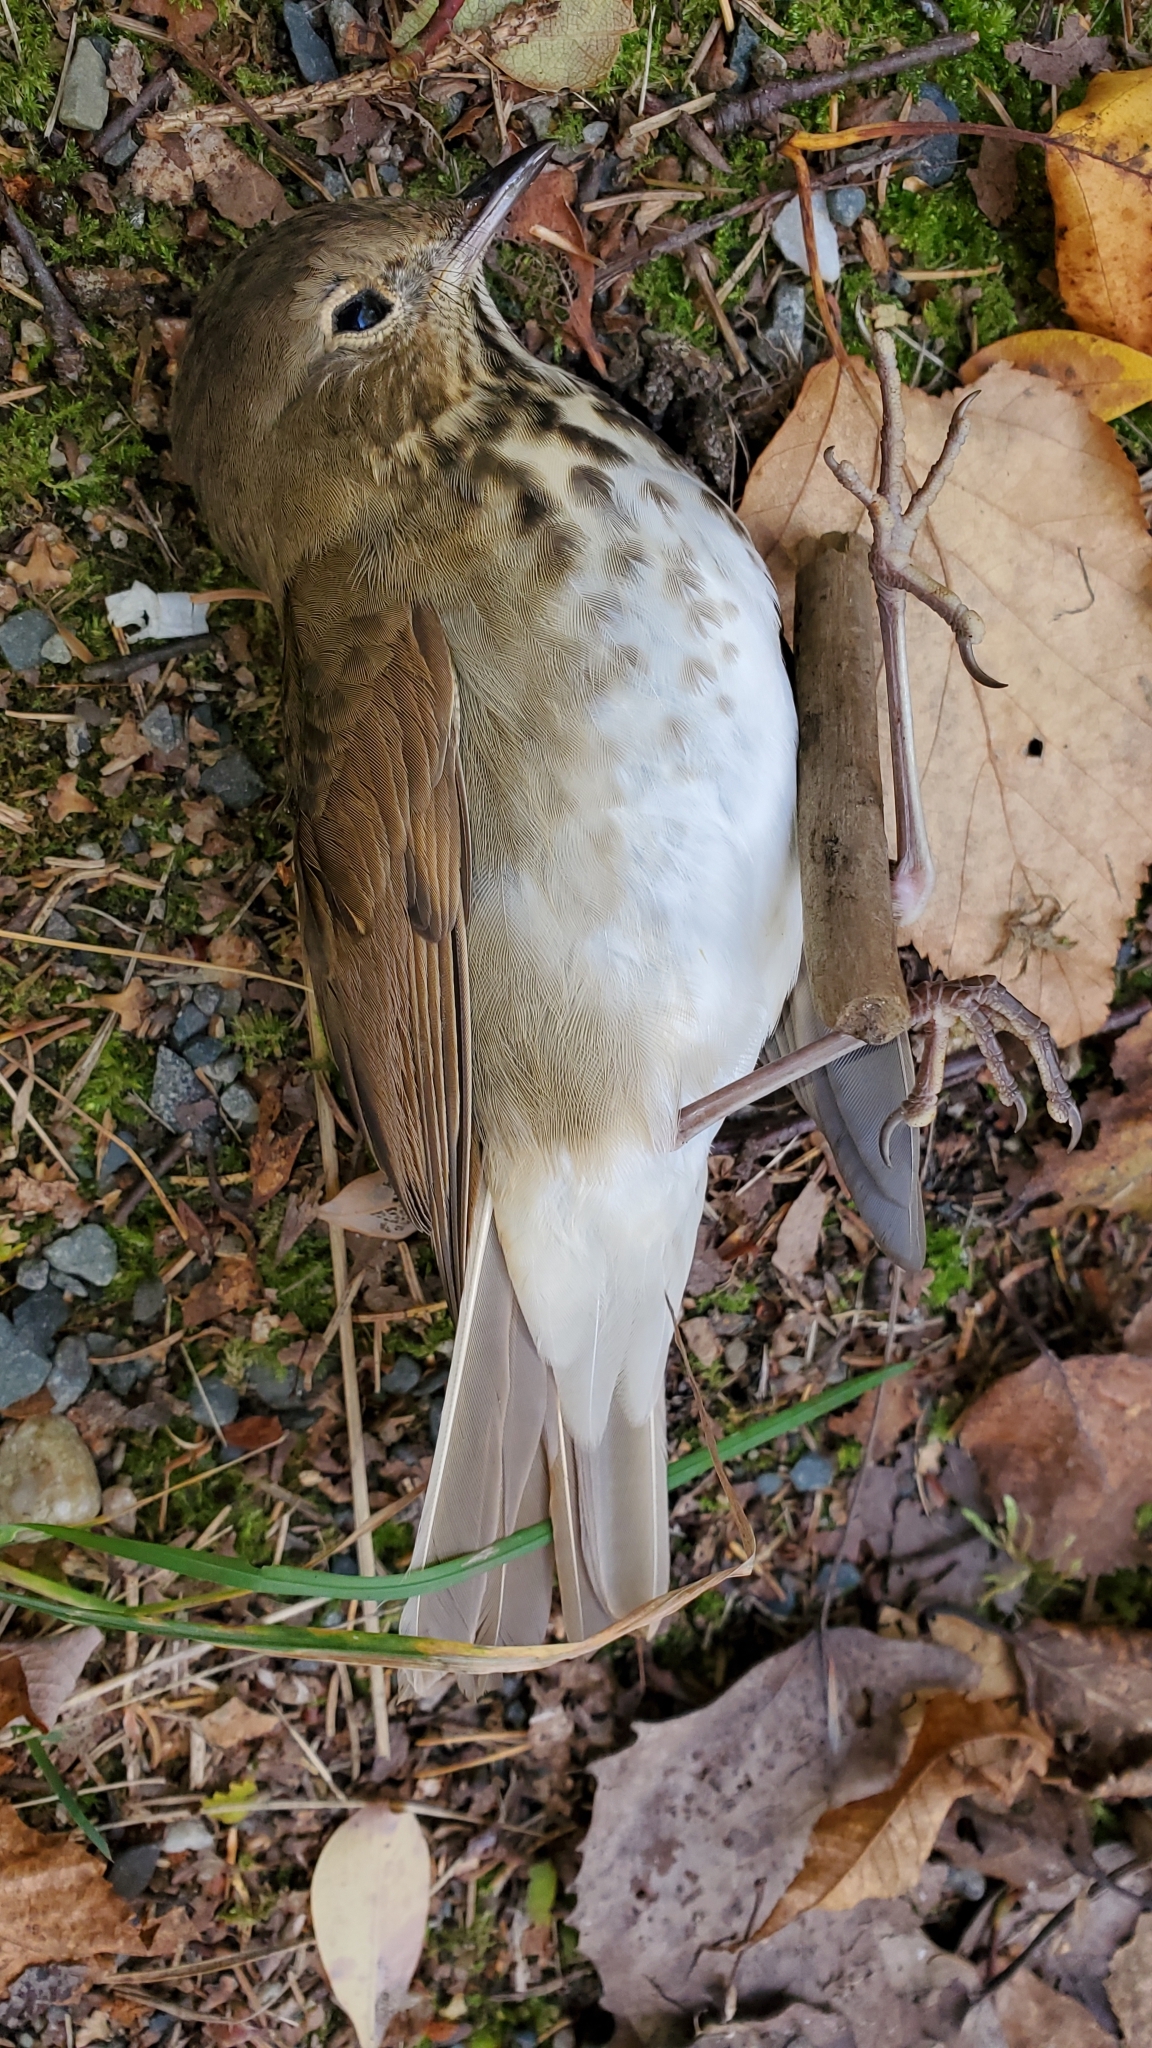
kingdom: Animalia
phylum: Chordata
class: Aves
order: Passeriformes
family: Turdidae
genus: Catharus
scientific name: Catharus guttatus
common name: Hermit thrush
